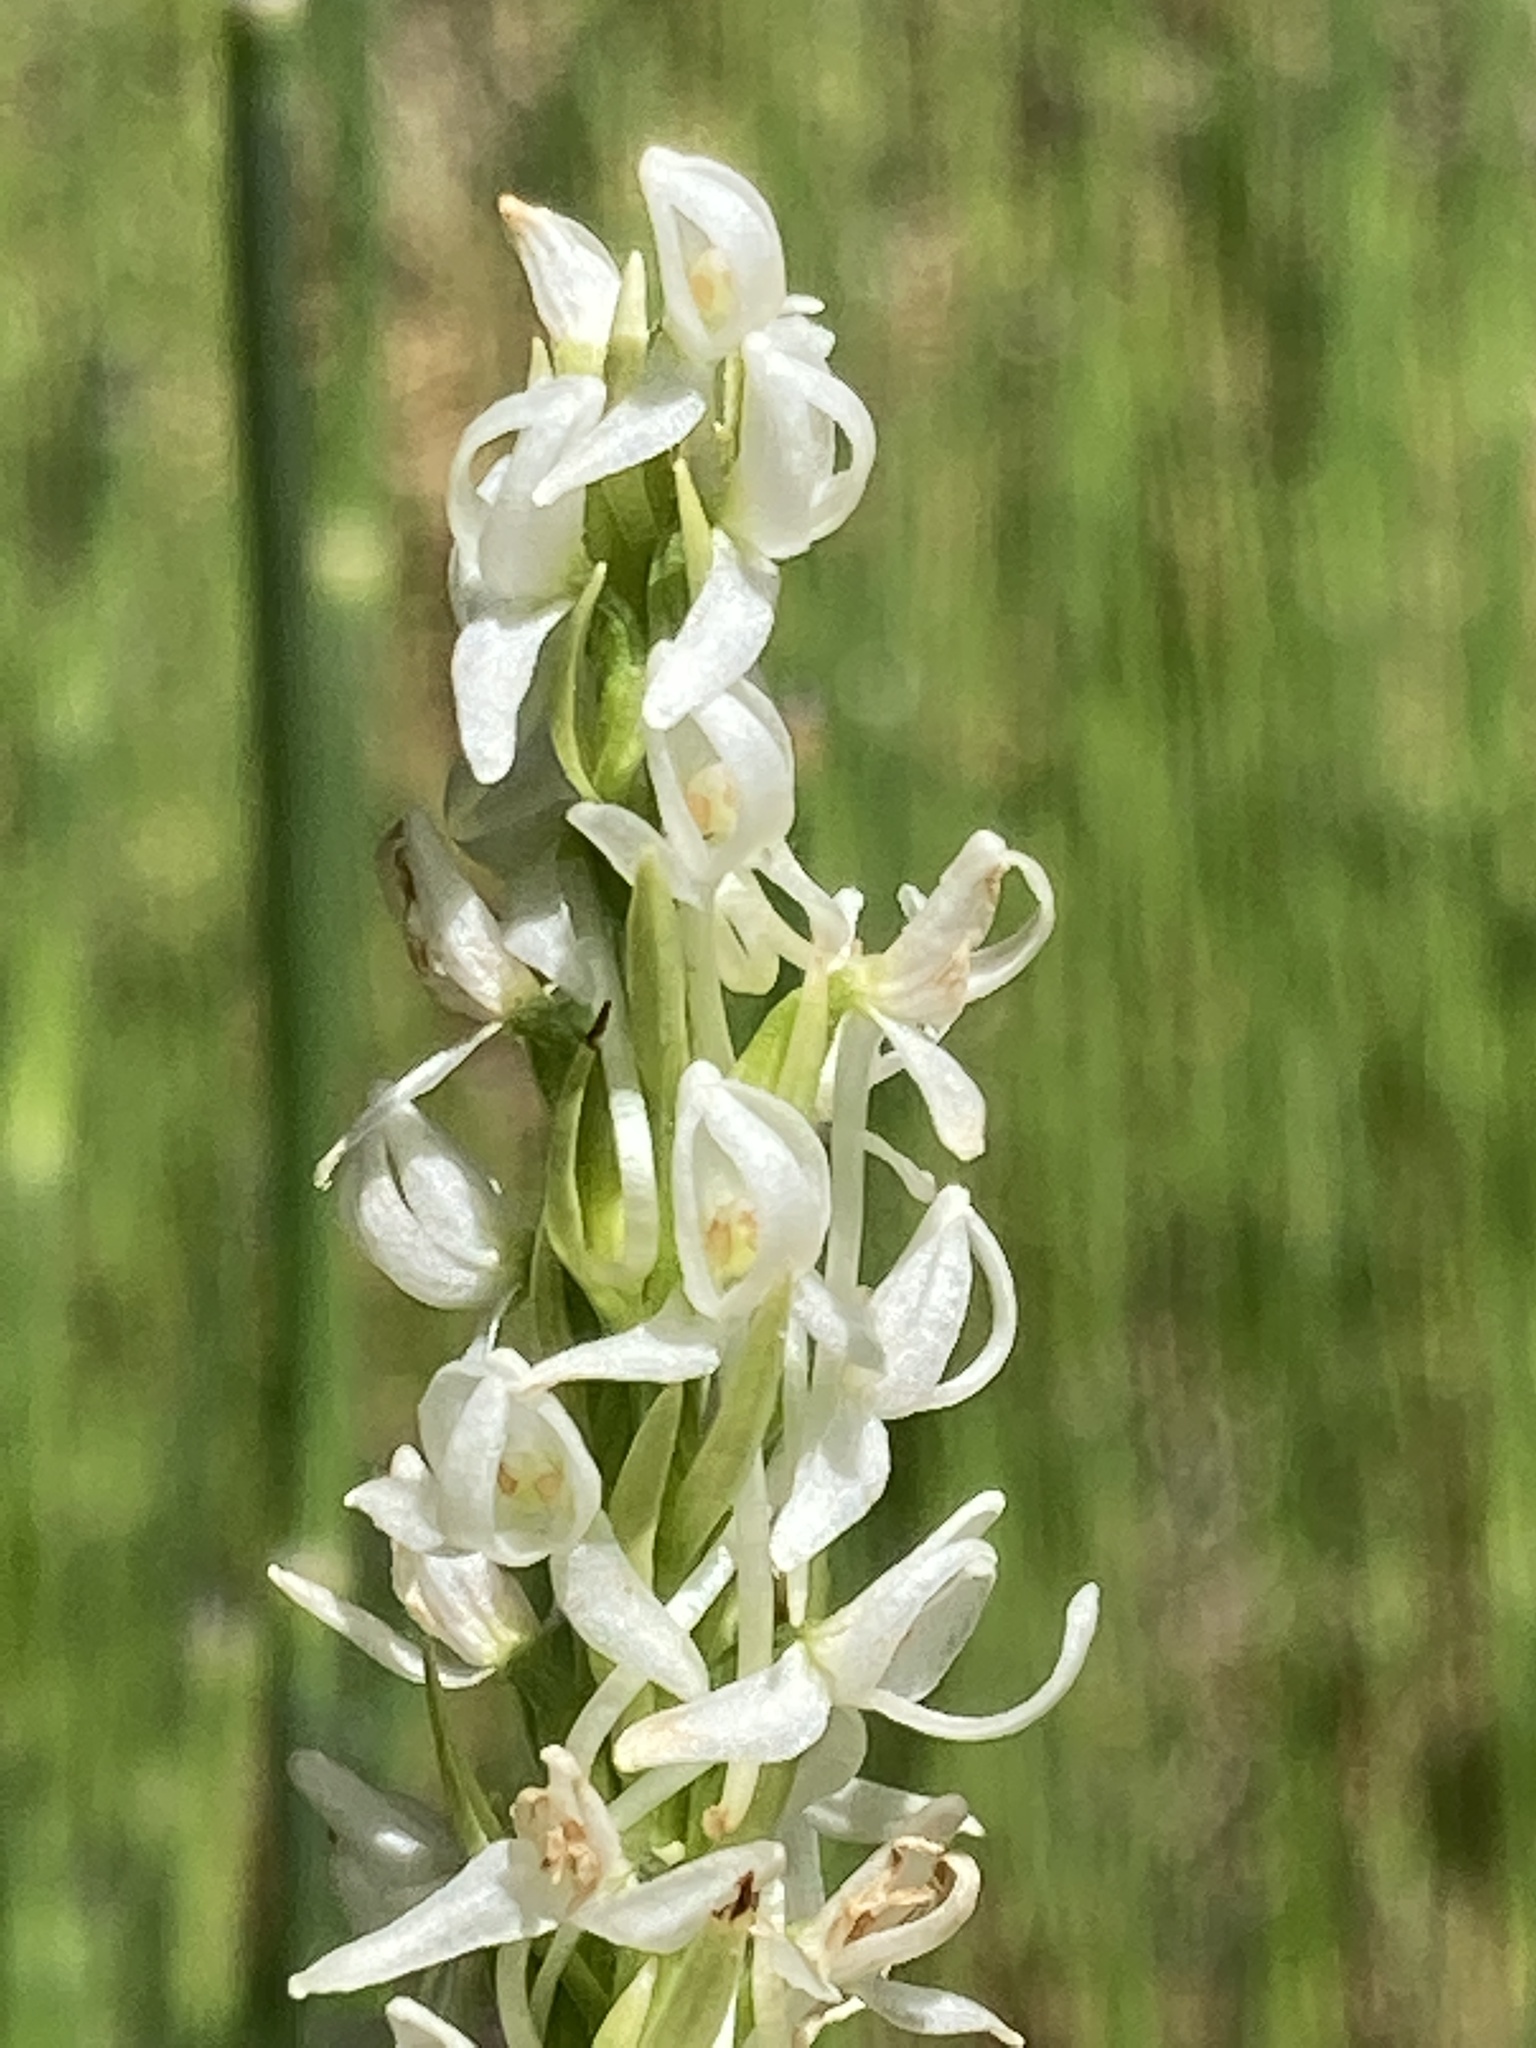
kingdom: Plantae
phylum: Tracheophyta
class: Liliopsida
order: Asparagales
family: Orchidaceae
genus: Platanthera
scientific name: Platanthera dilatata
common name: Bog candles
